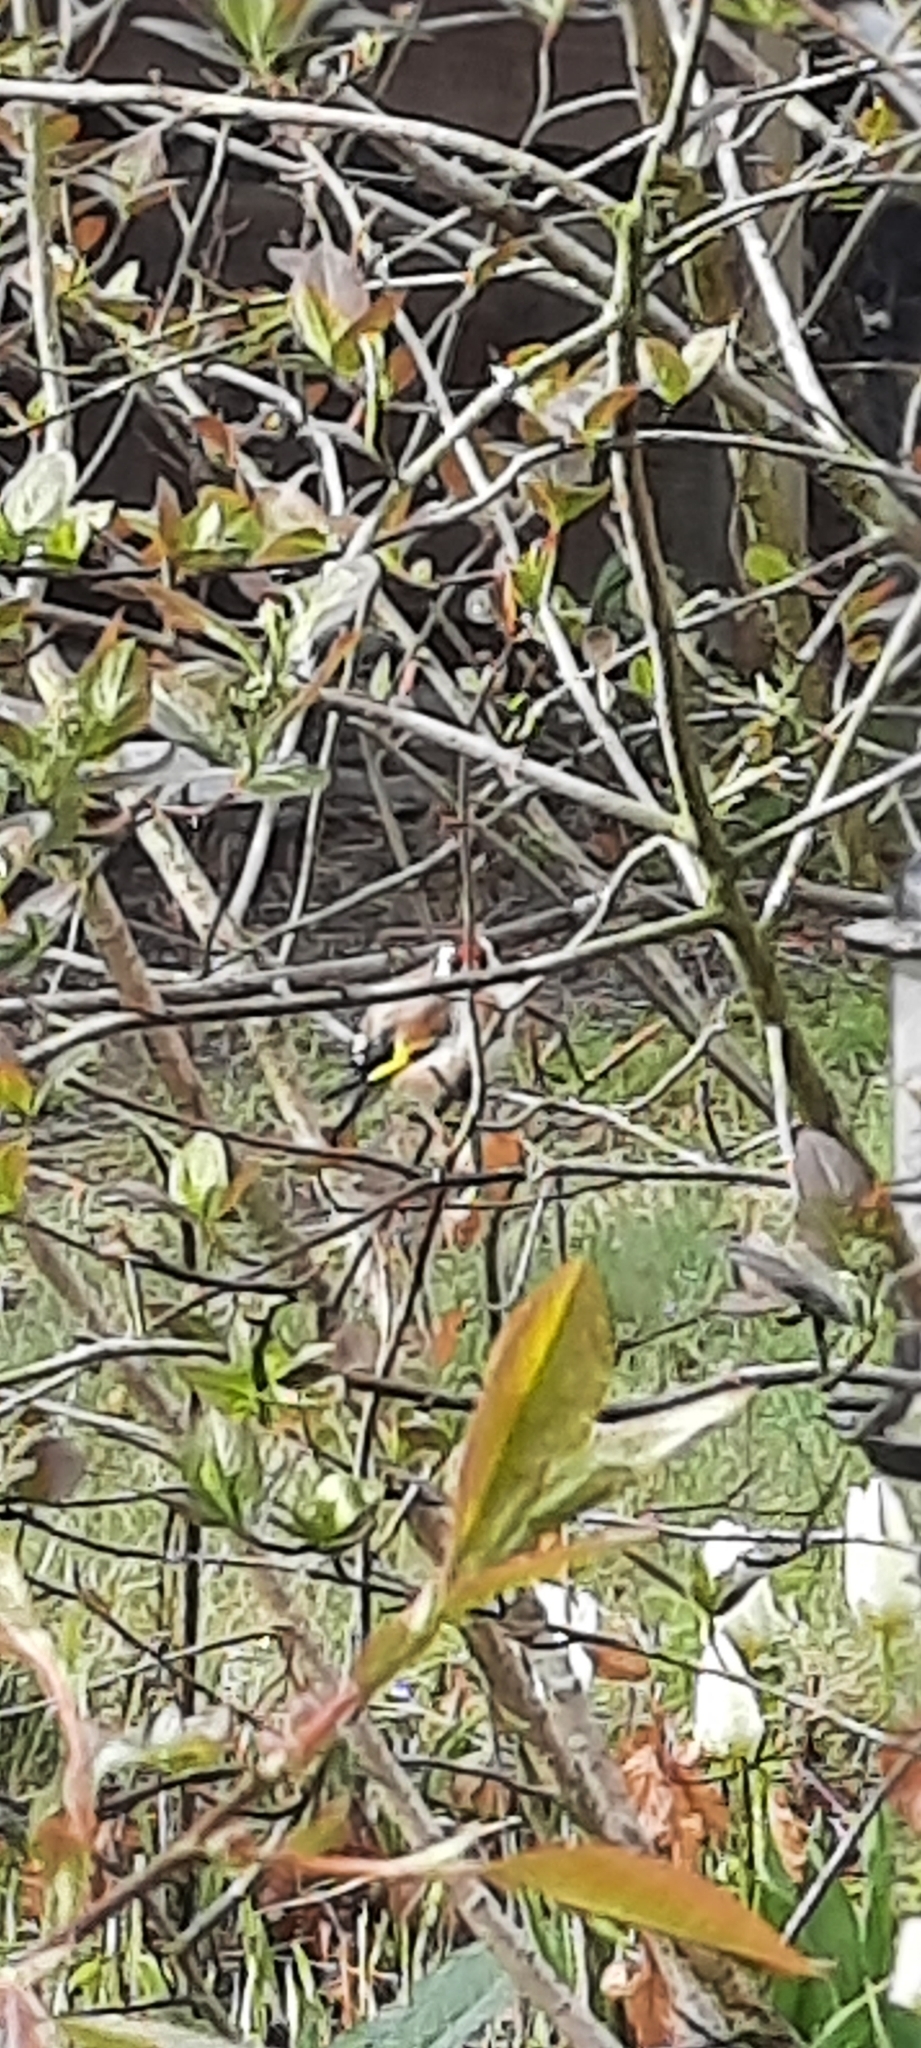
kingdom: Animalia
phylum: Chordata
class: Aves
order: Passeriformes
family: Fringillidae
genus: Carduelis
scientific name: Carduelis carduelis
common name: European goldfinch
